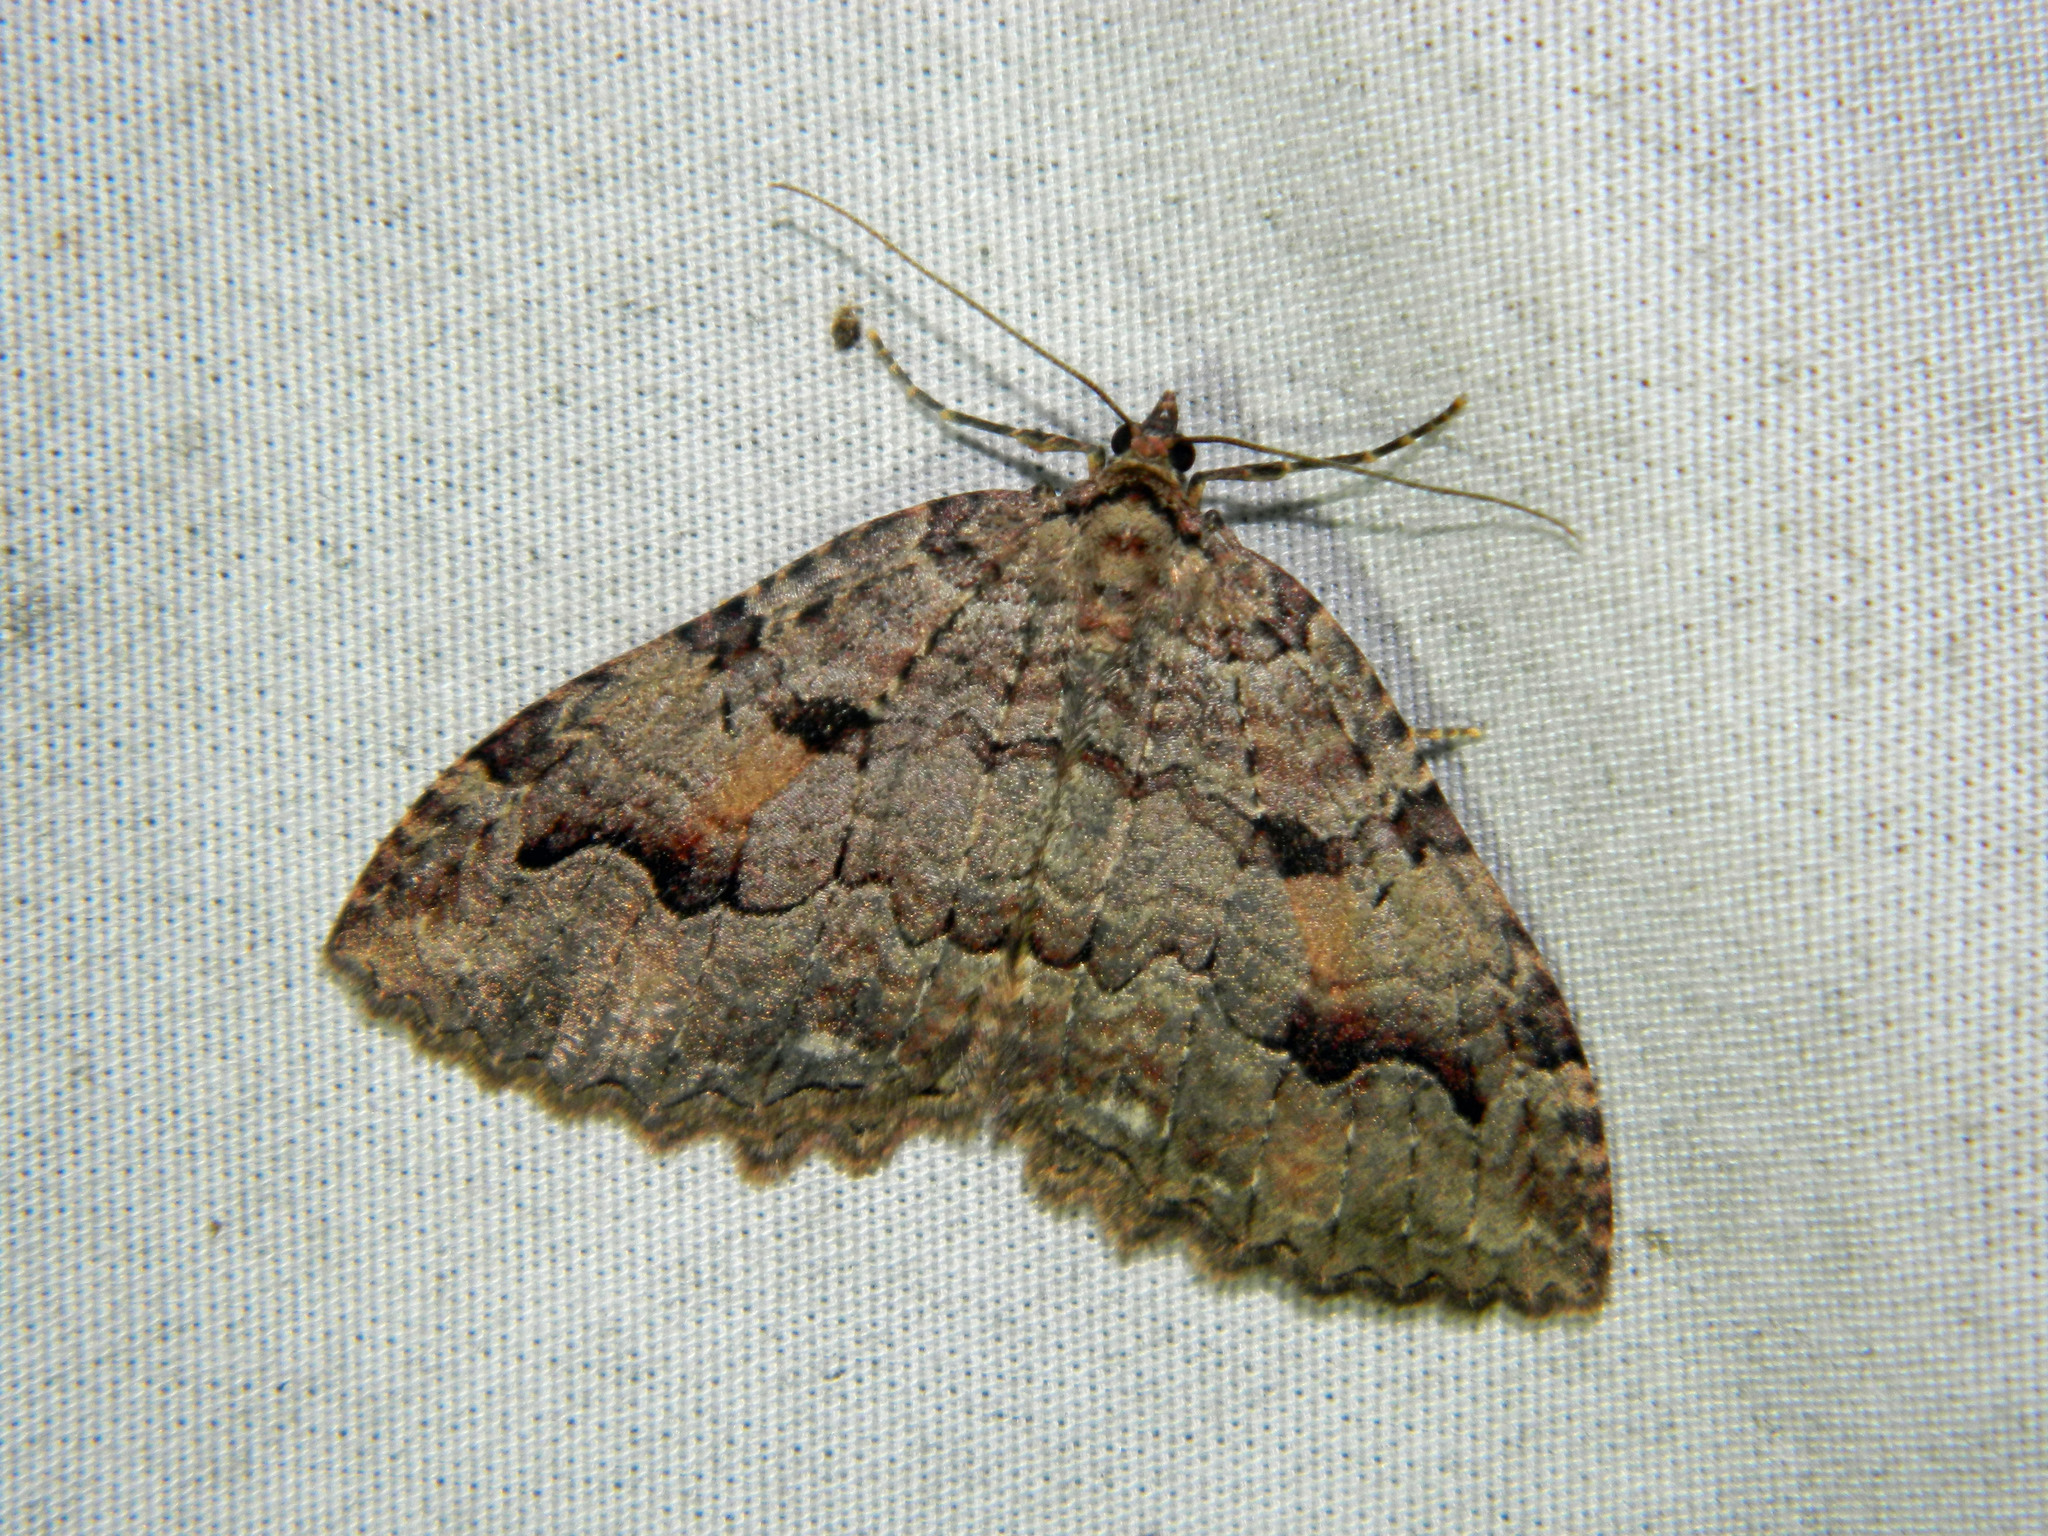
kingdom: Animalia
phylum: Arthropoda
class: Insecta
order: Lepidoptera
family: Geometridae
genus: Triphosa
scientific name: Triphosa haesitata
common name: Tissue moth
